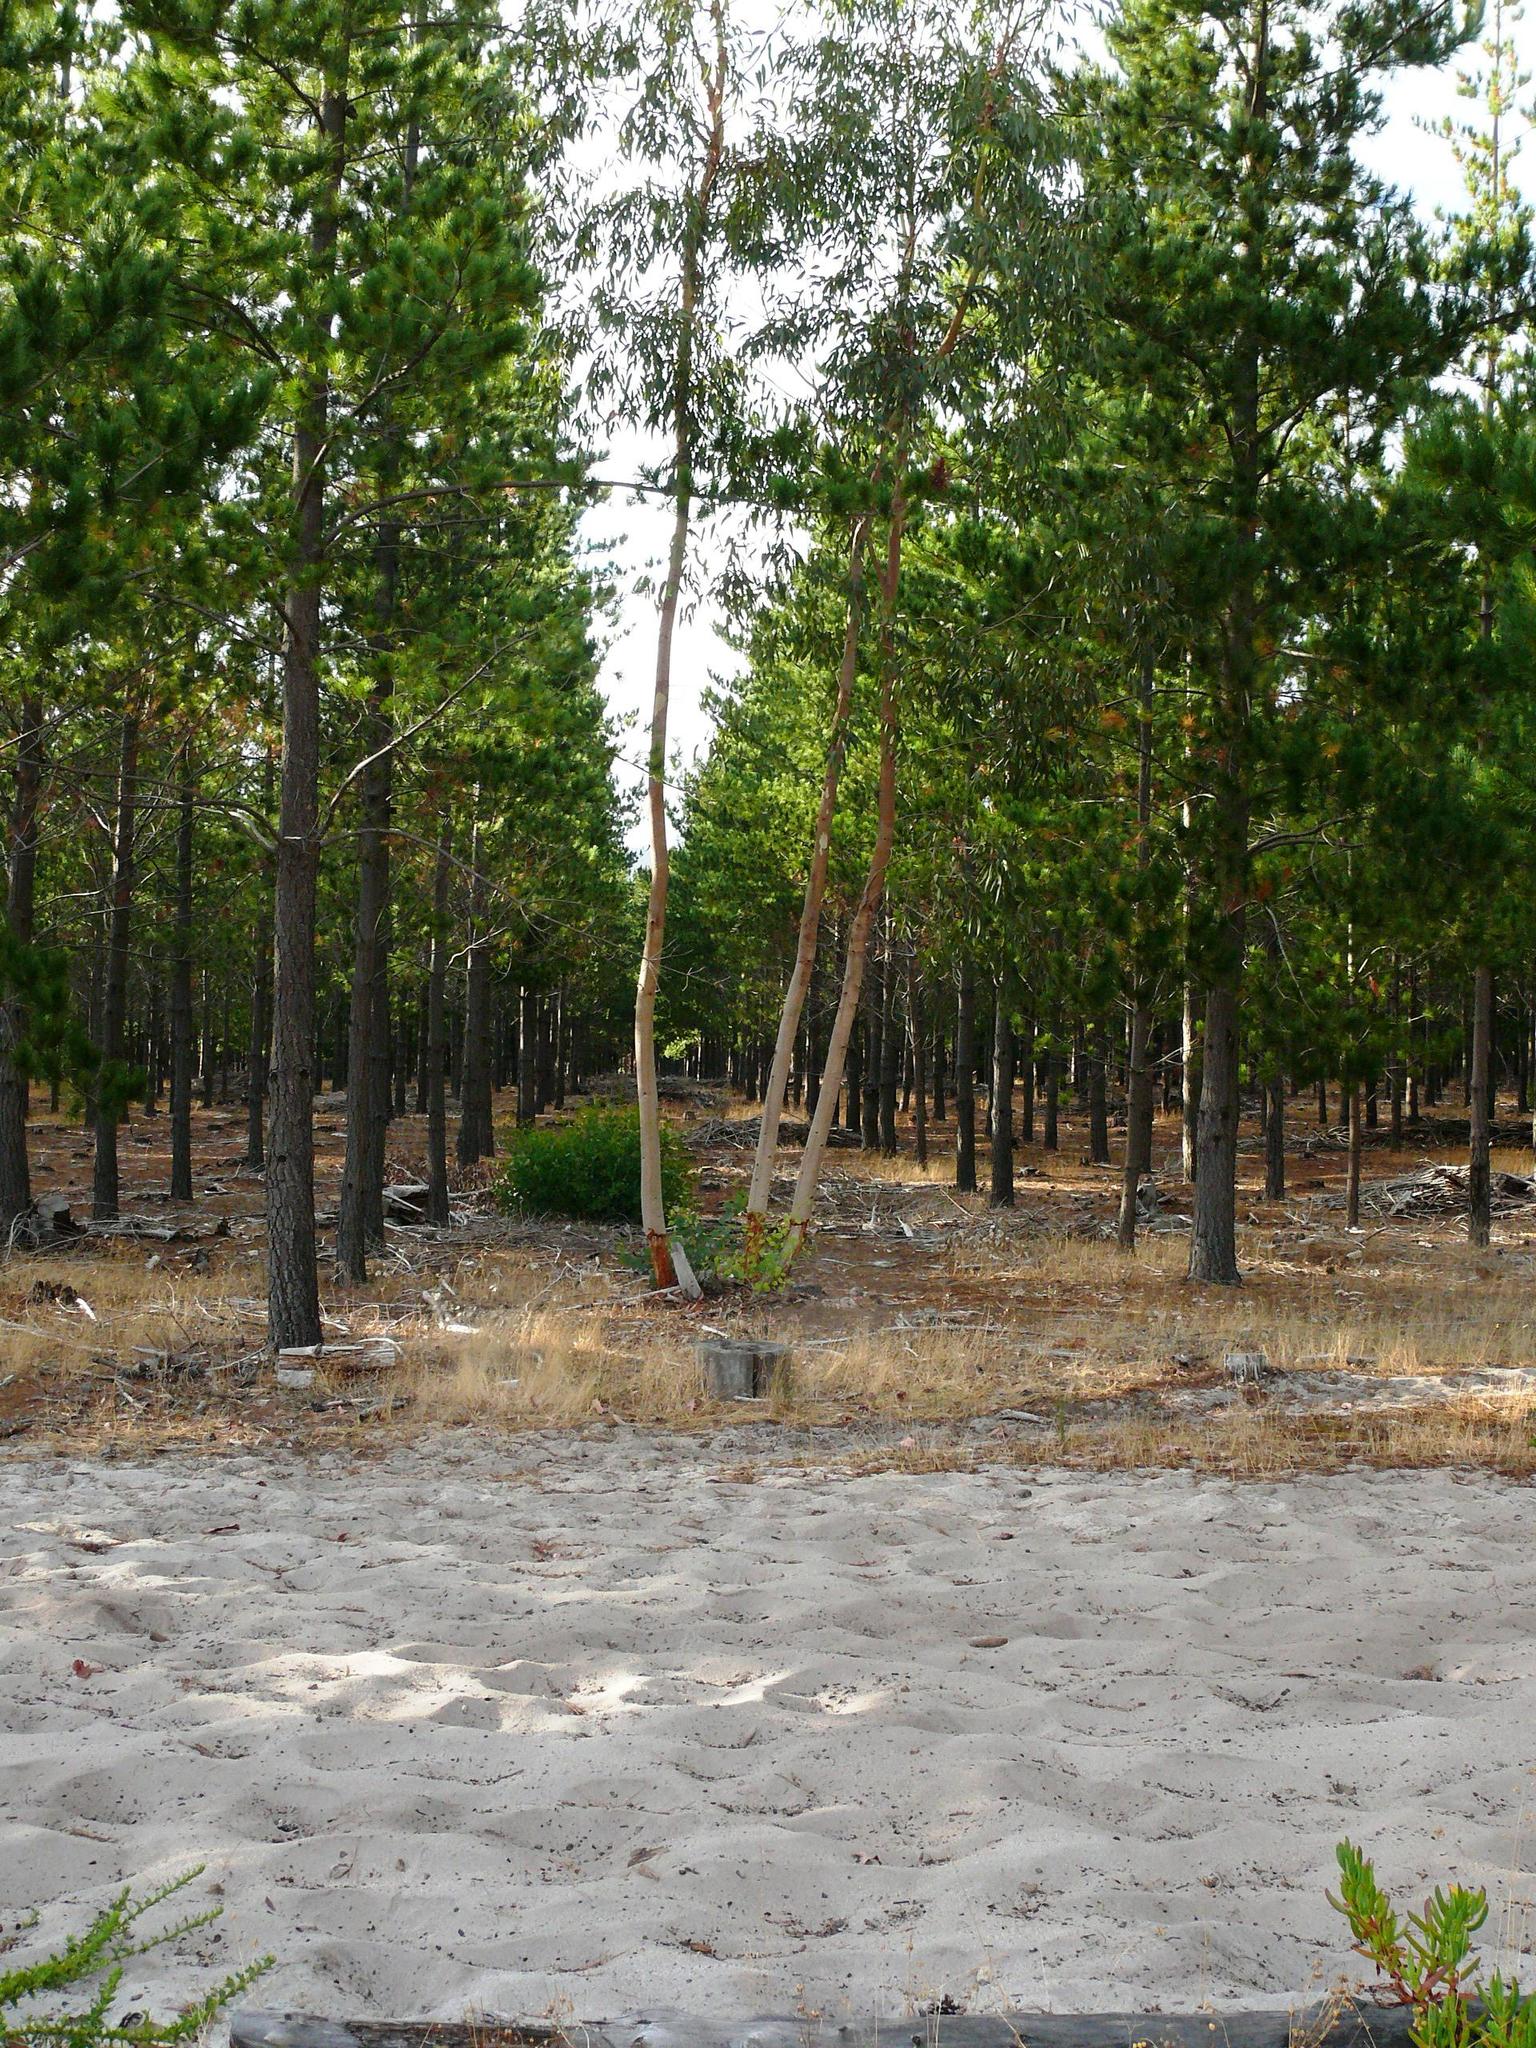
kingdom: Animalia
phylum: Chordata
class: Mammalia
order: Perissodactyla
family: Equidae
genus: Equus
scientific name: Equus caballus
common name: Horse
